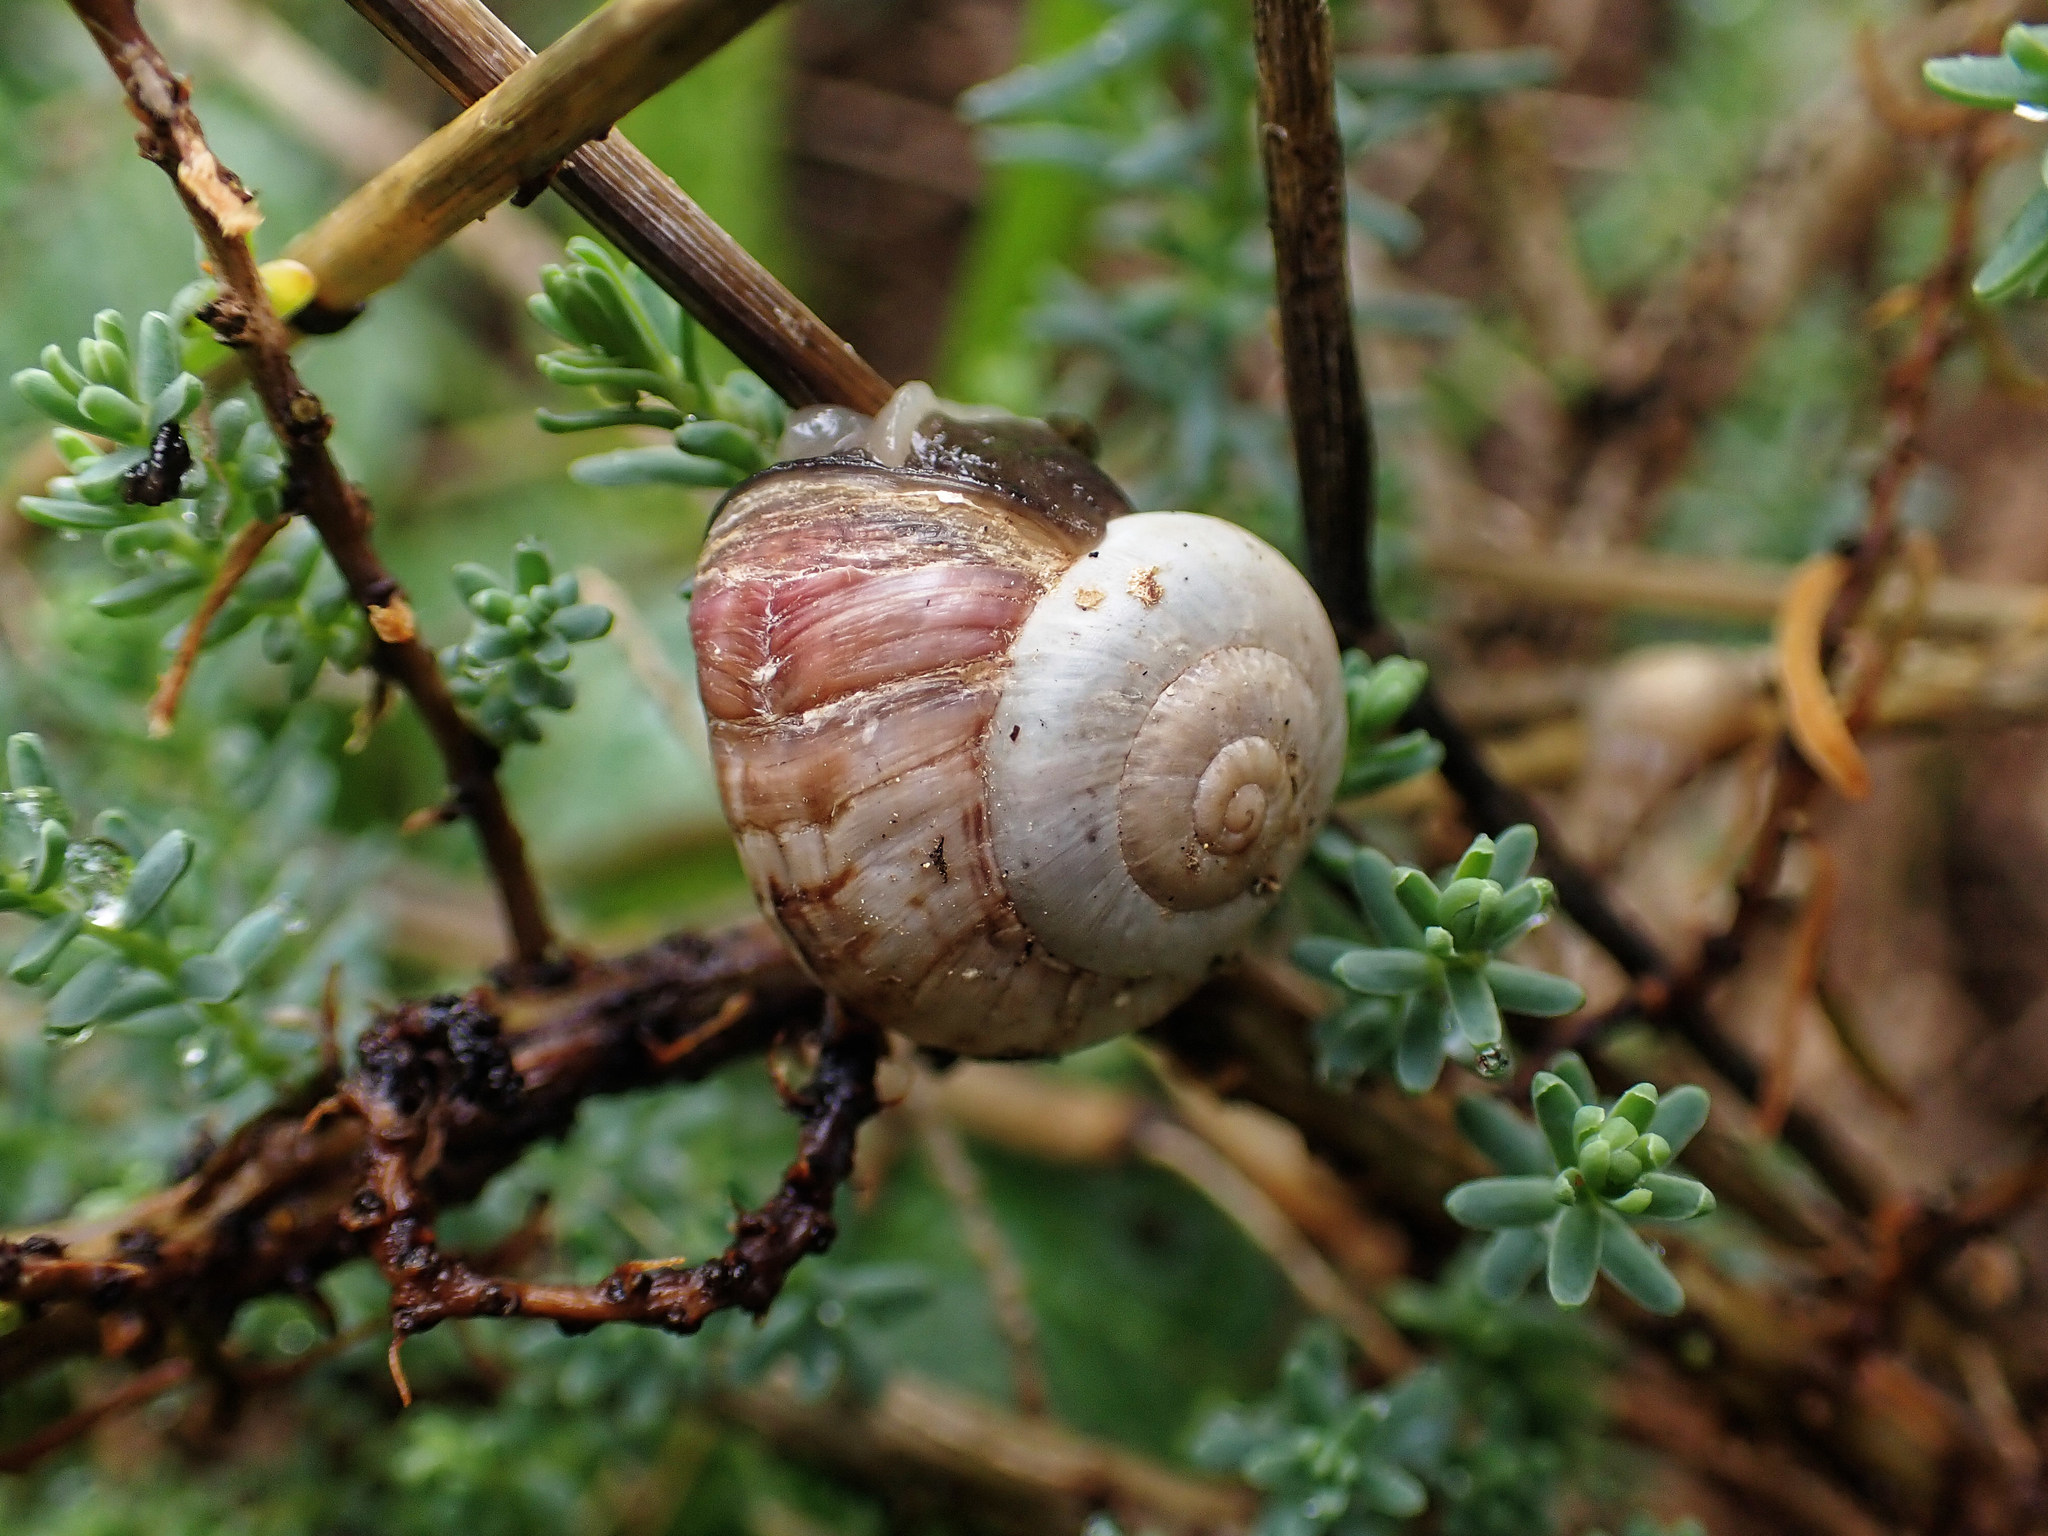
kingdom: Animalia
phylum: Mollusca
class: Gastropoda
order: Stylommatophora
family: Helicidae
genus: Theba
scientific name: Theba pisana
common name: White snail
